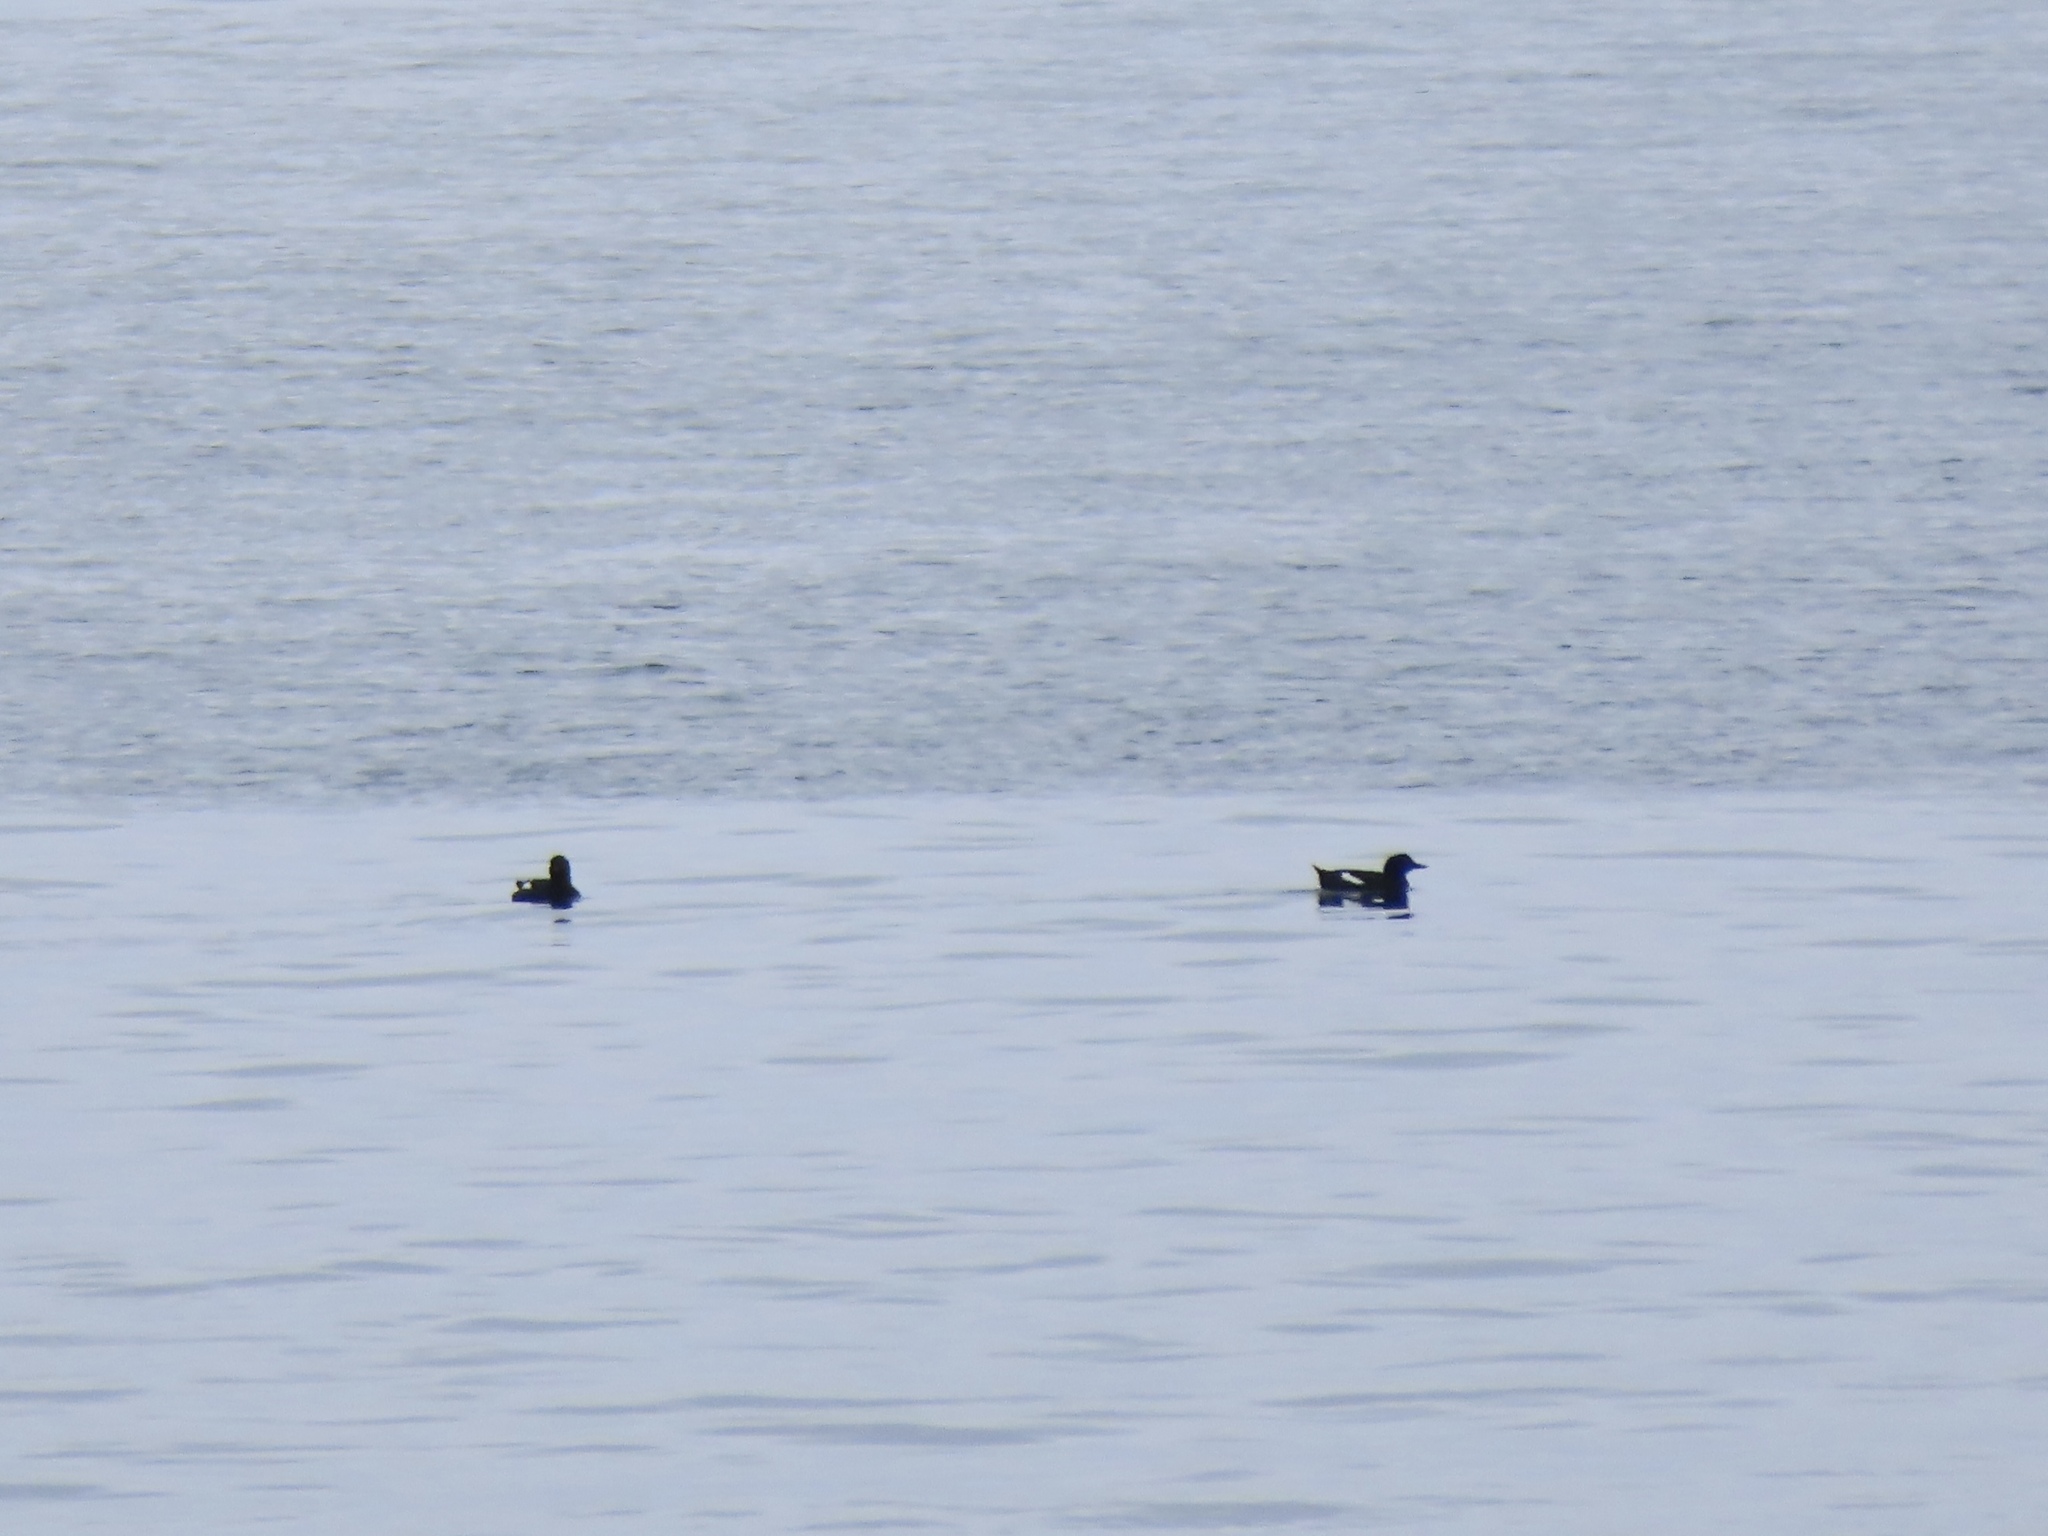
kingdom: Animalia
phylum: Chordata
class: Aves
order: Charadriiformes
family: Alcidae
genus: Cepphus
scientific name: Cepphus columba
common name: Pigeon guillemot
